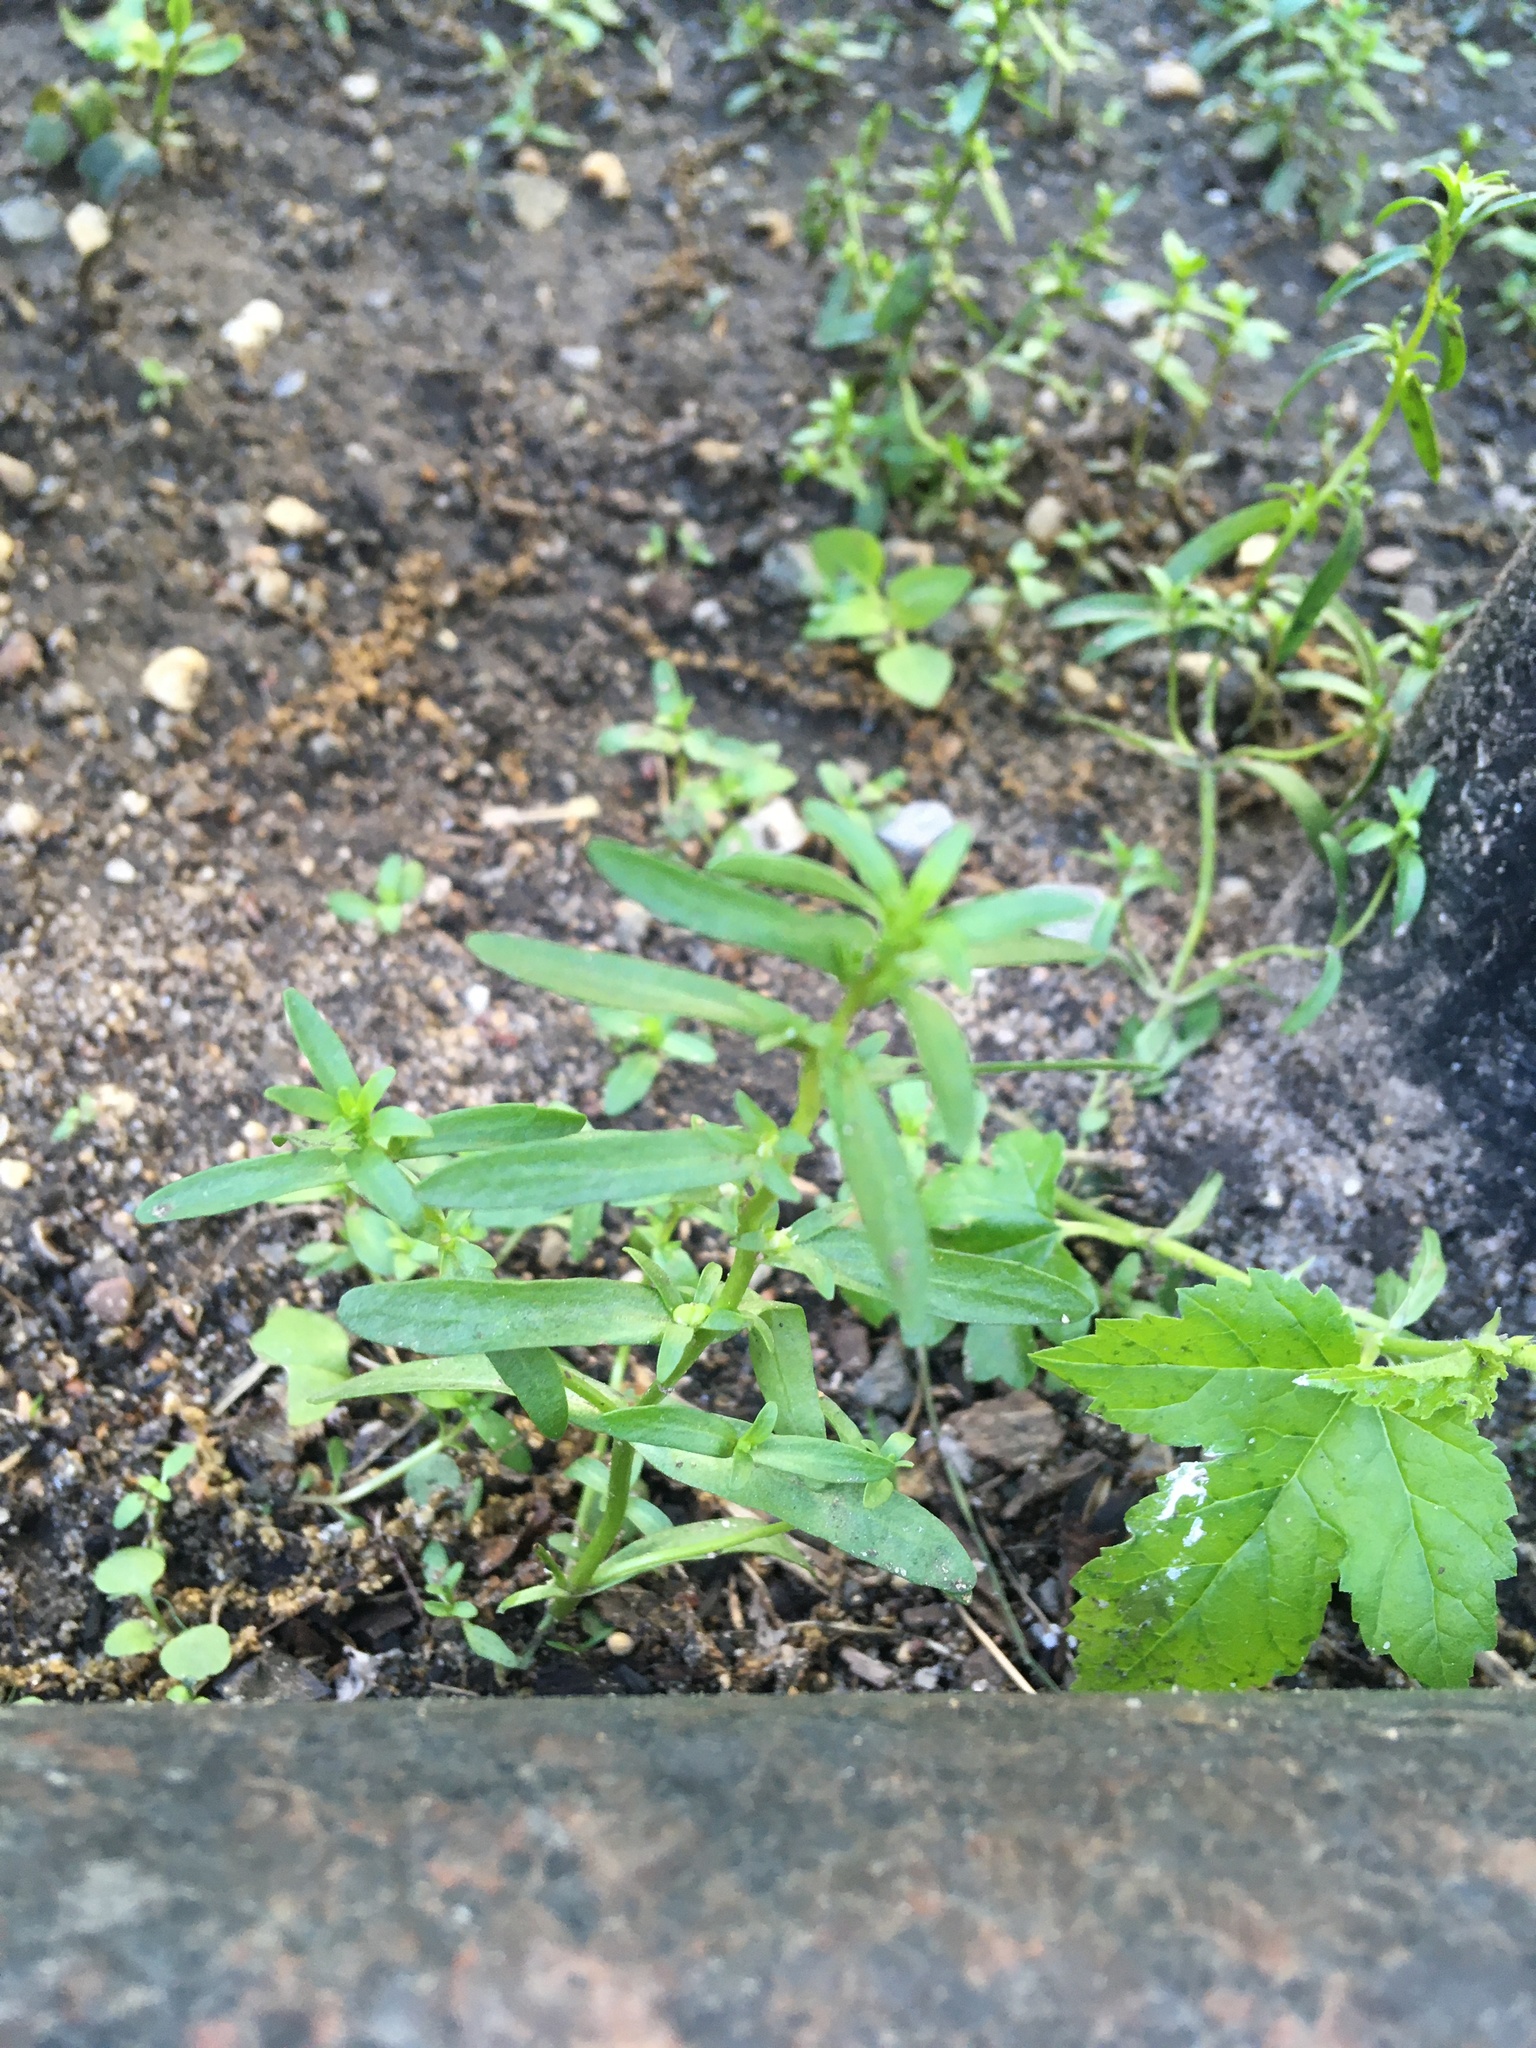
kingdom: Plantae
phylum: Tracheophyta
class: Magnoliopsida
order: Lamiales
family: Plantaginaceae
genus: Veronica
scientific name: Veronica peregrina
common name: Neckweed
